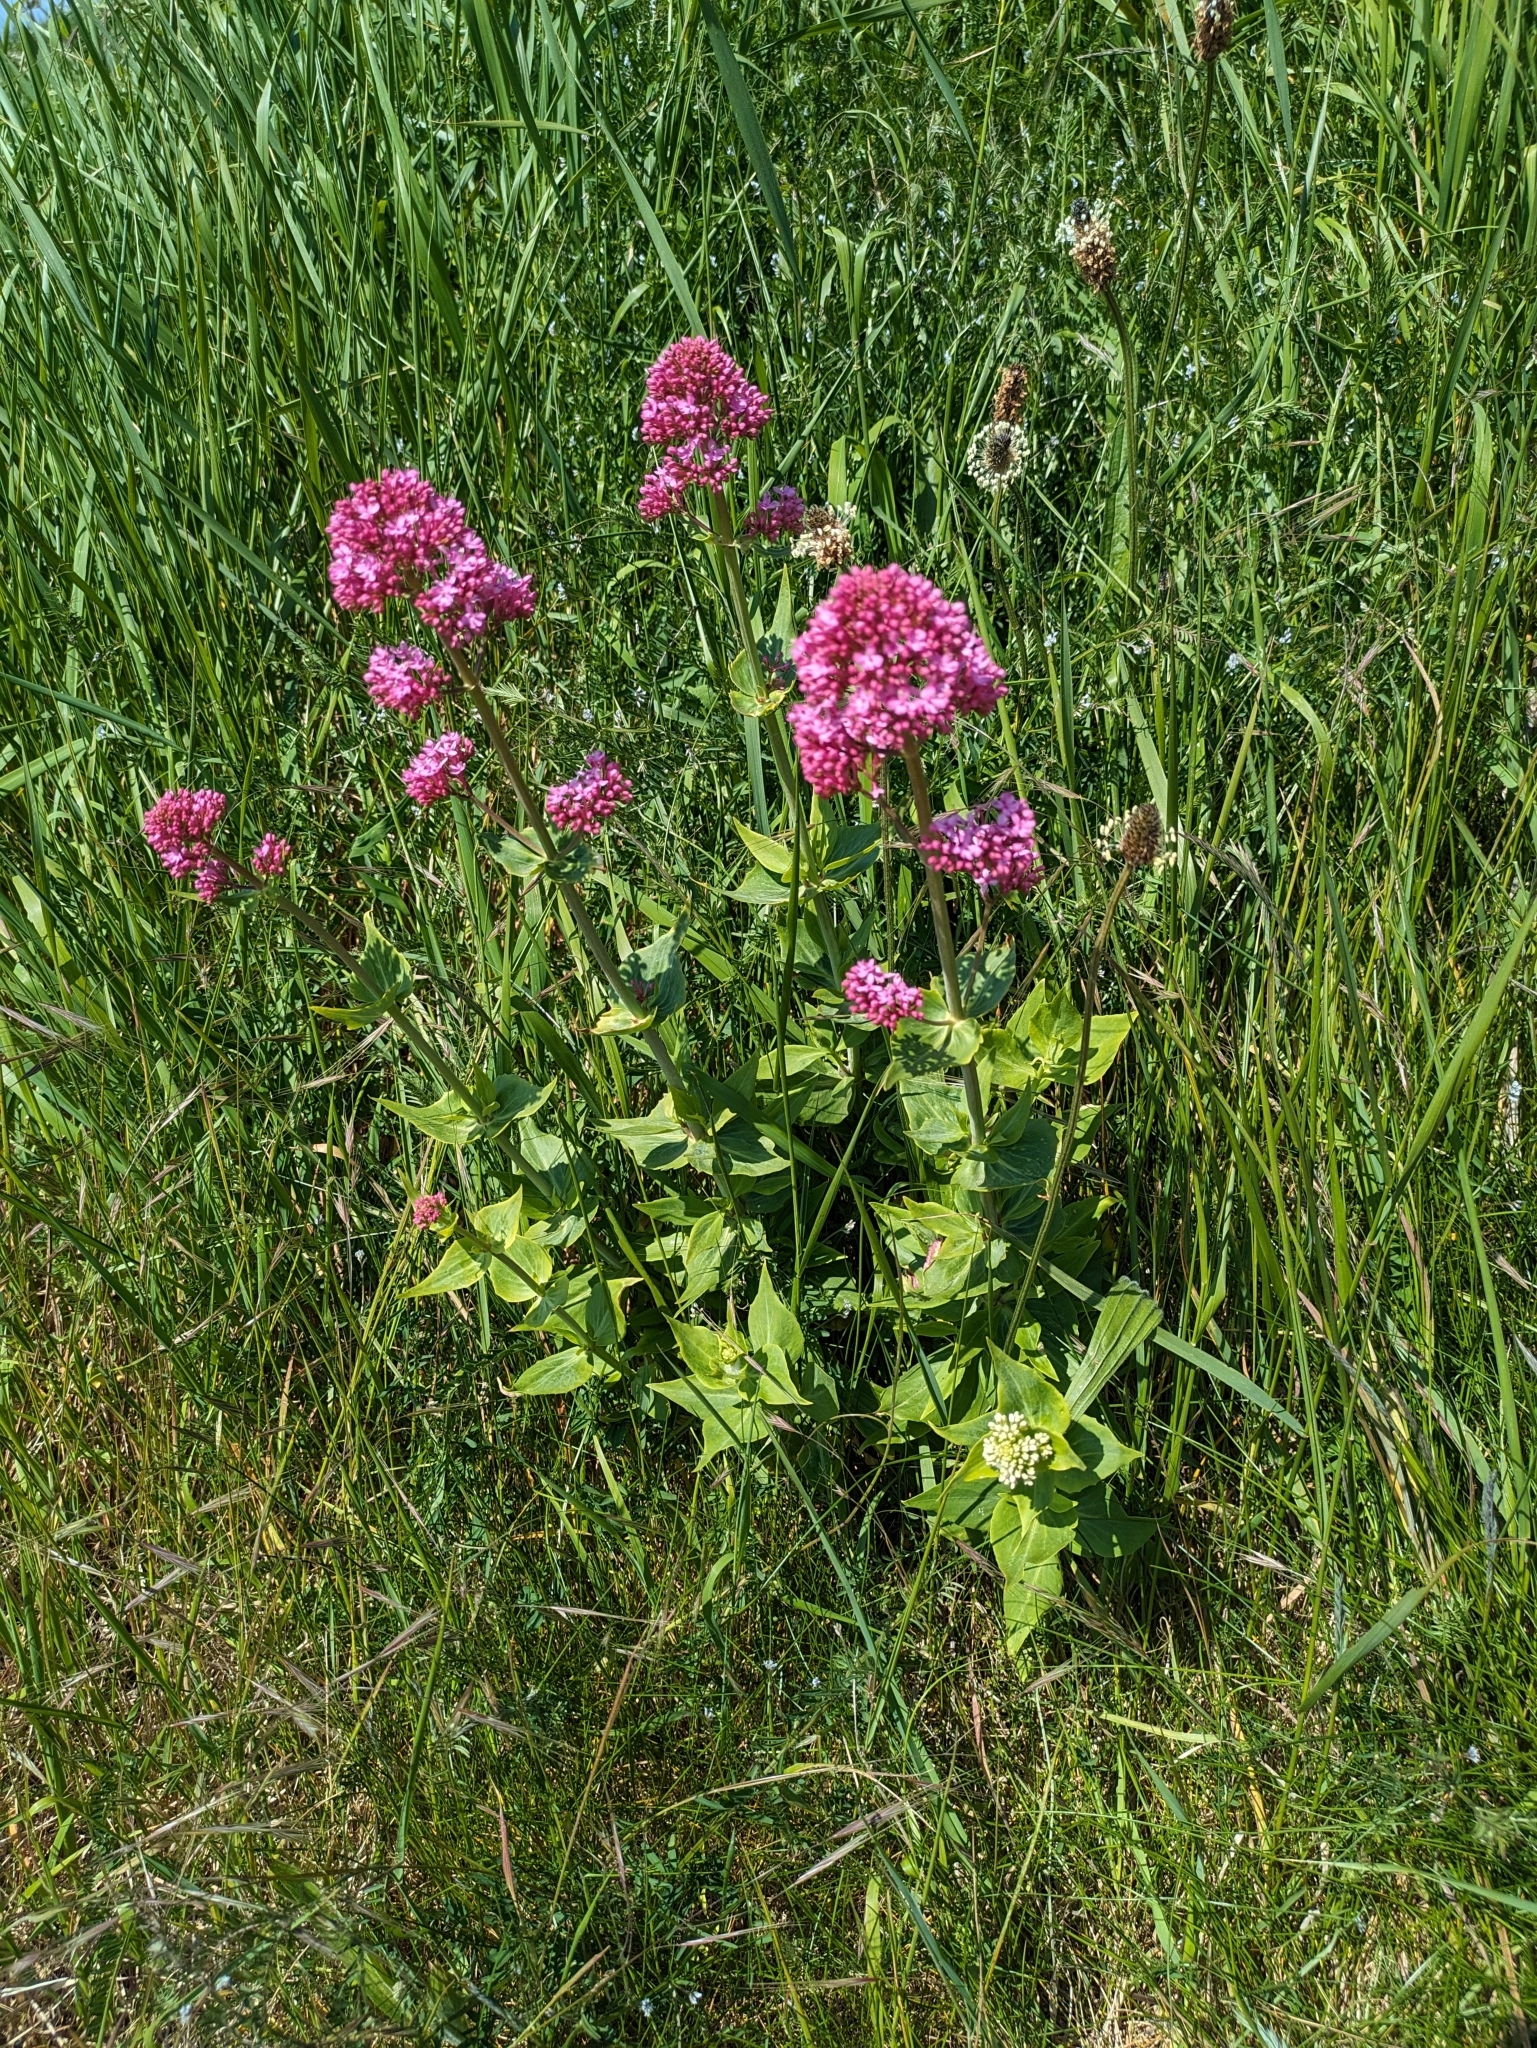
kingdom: Plantae
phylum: Tracheophyta
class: Magnoliopsida
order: Dipsacales
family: Caprifoliaceae
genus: Centranthus
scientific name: Centranthus ruber
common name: Red valerian
